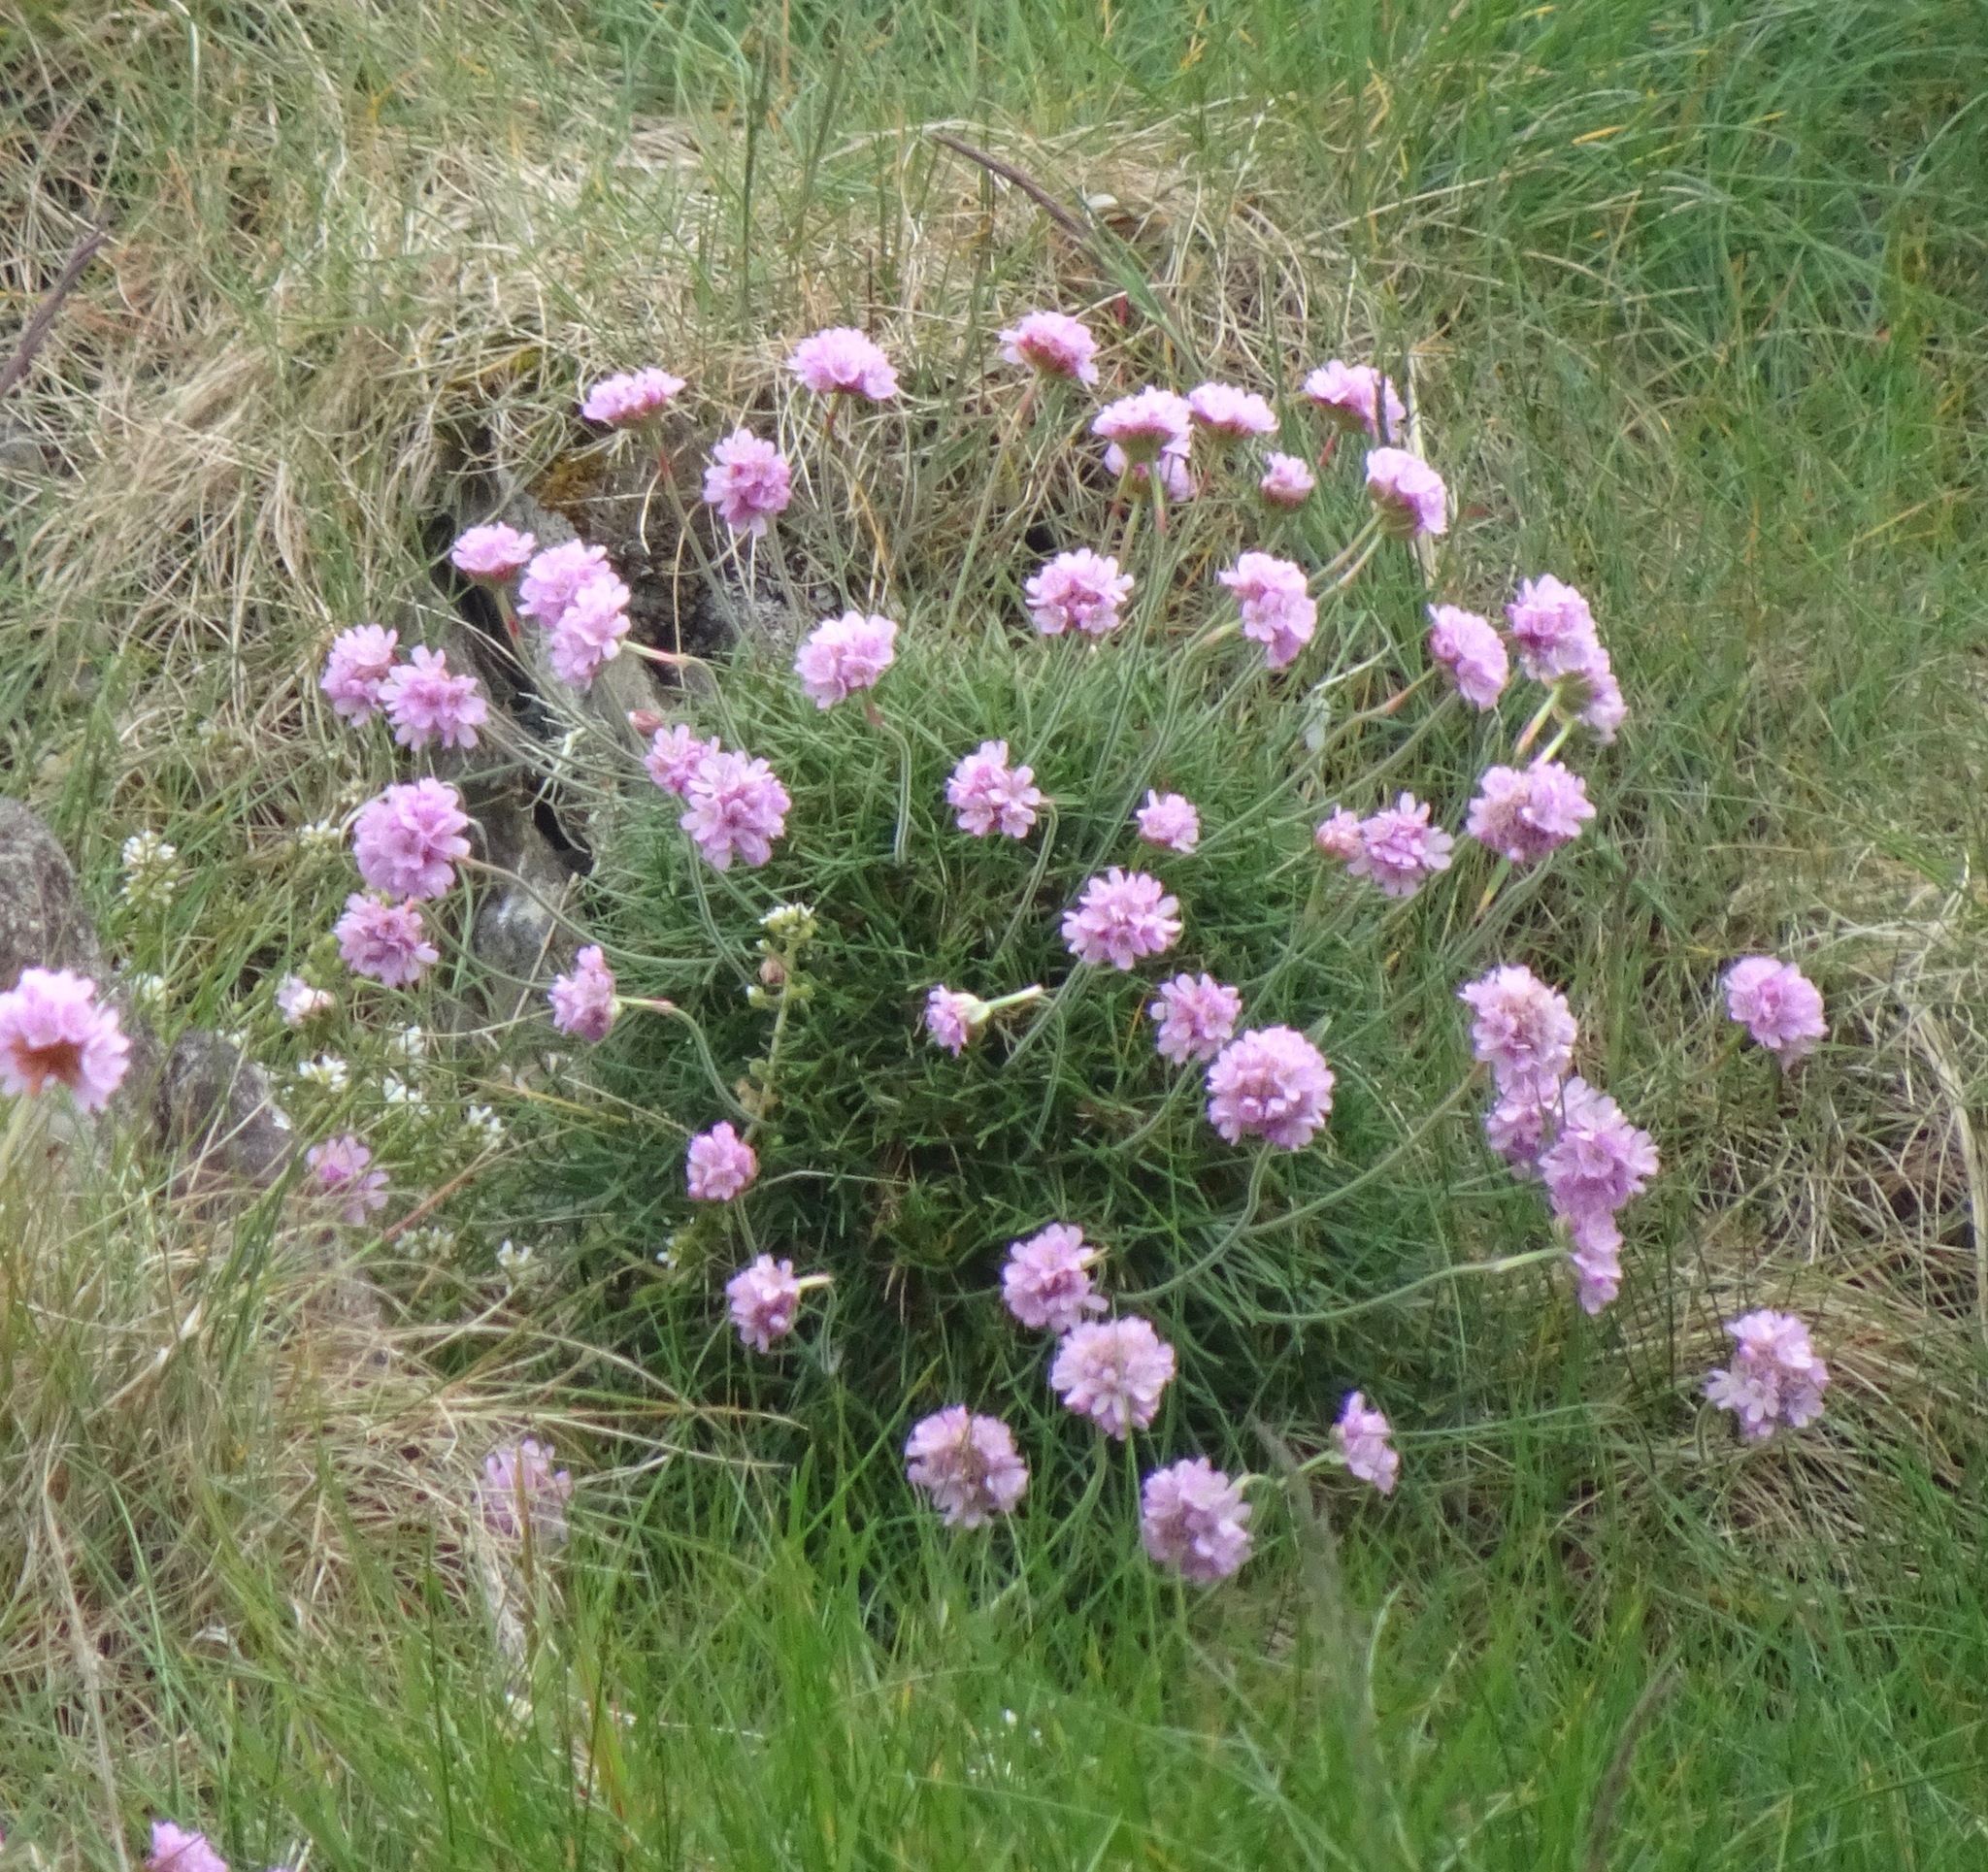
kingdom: Plantae
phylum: Tracheophyta
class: Magnoliopsida
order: Caryophyllales
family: Plumbaginaceae
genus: Armeria
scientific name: Armeria maritima
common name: Thrift
